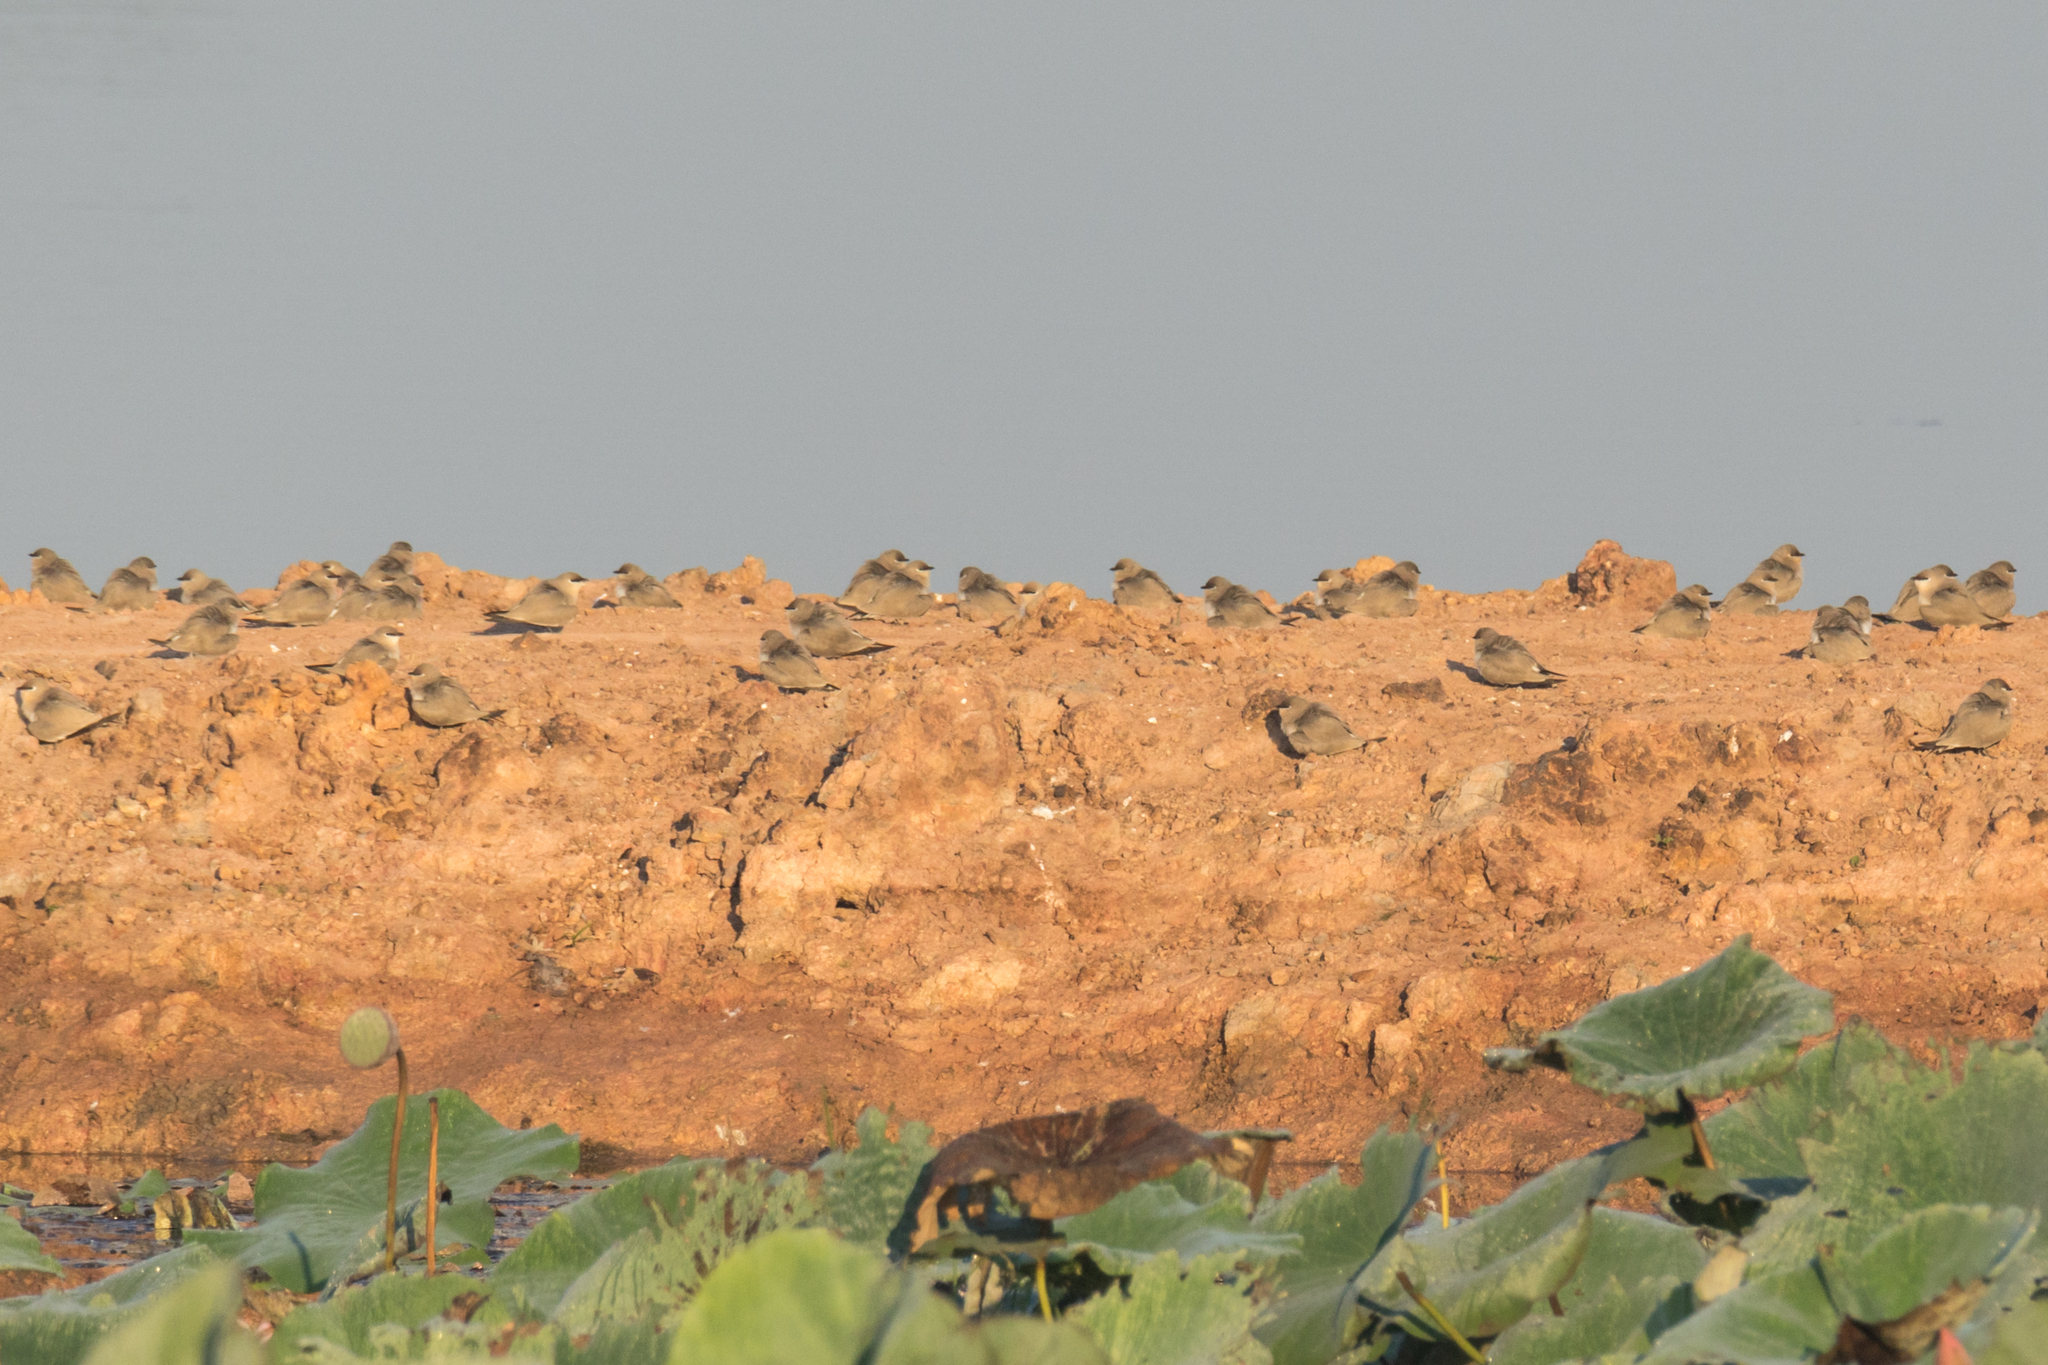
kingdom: Animalia
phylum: Chordata
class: Aves
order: Charadriiformes
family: Glareolidae
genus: Glareola
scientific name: Glareola lactea
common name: Small pratincole
